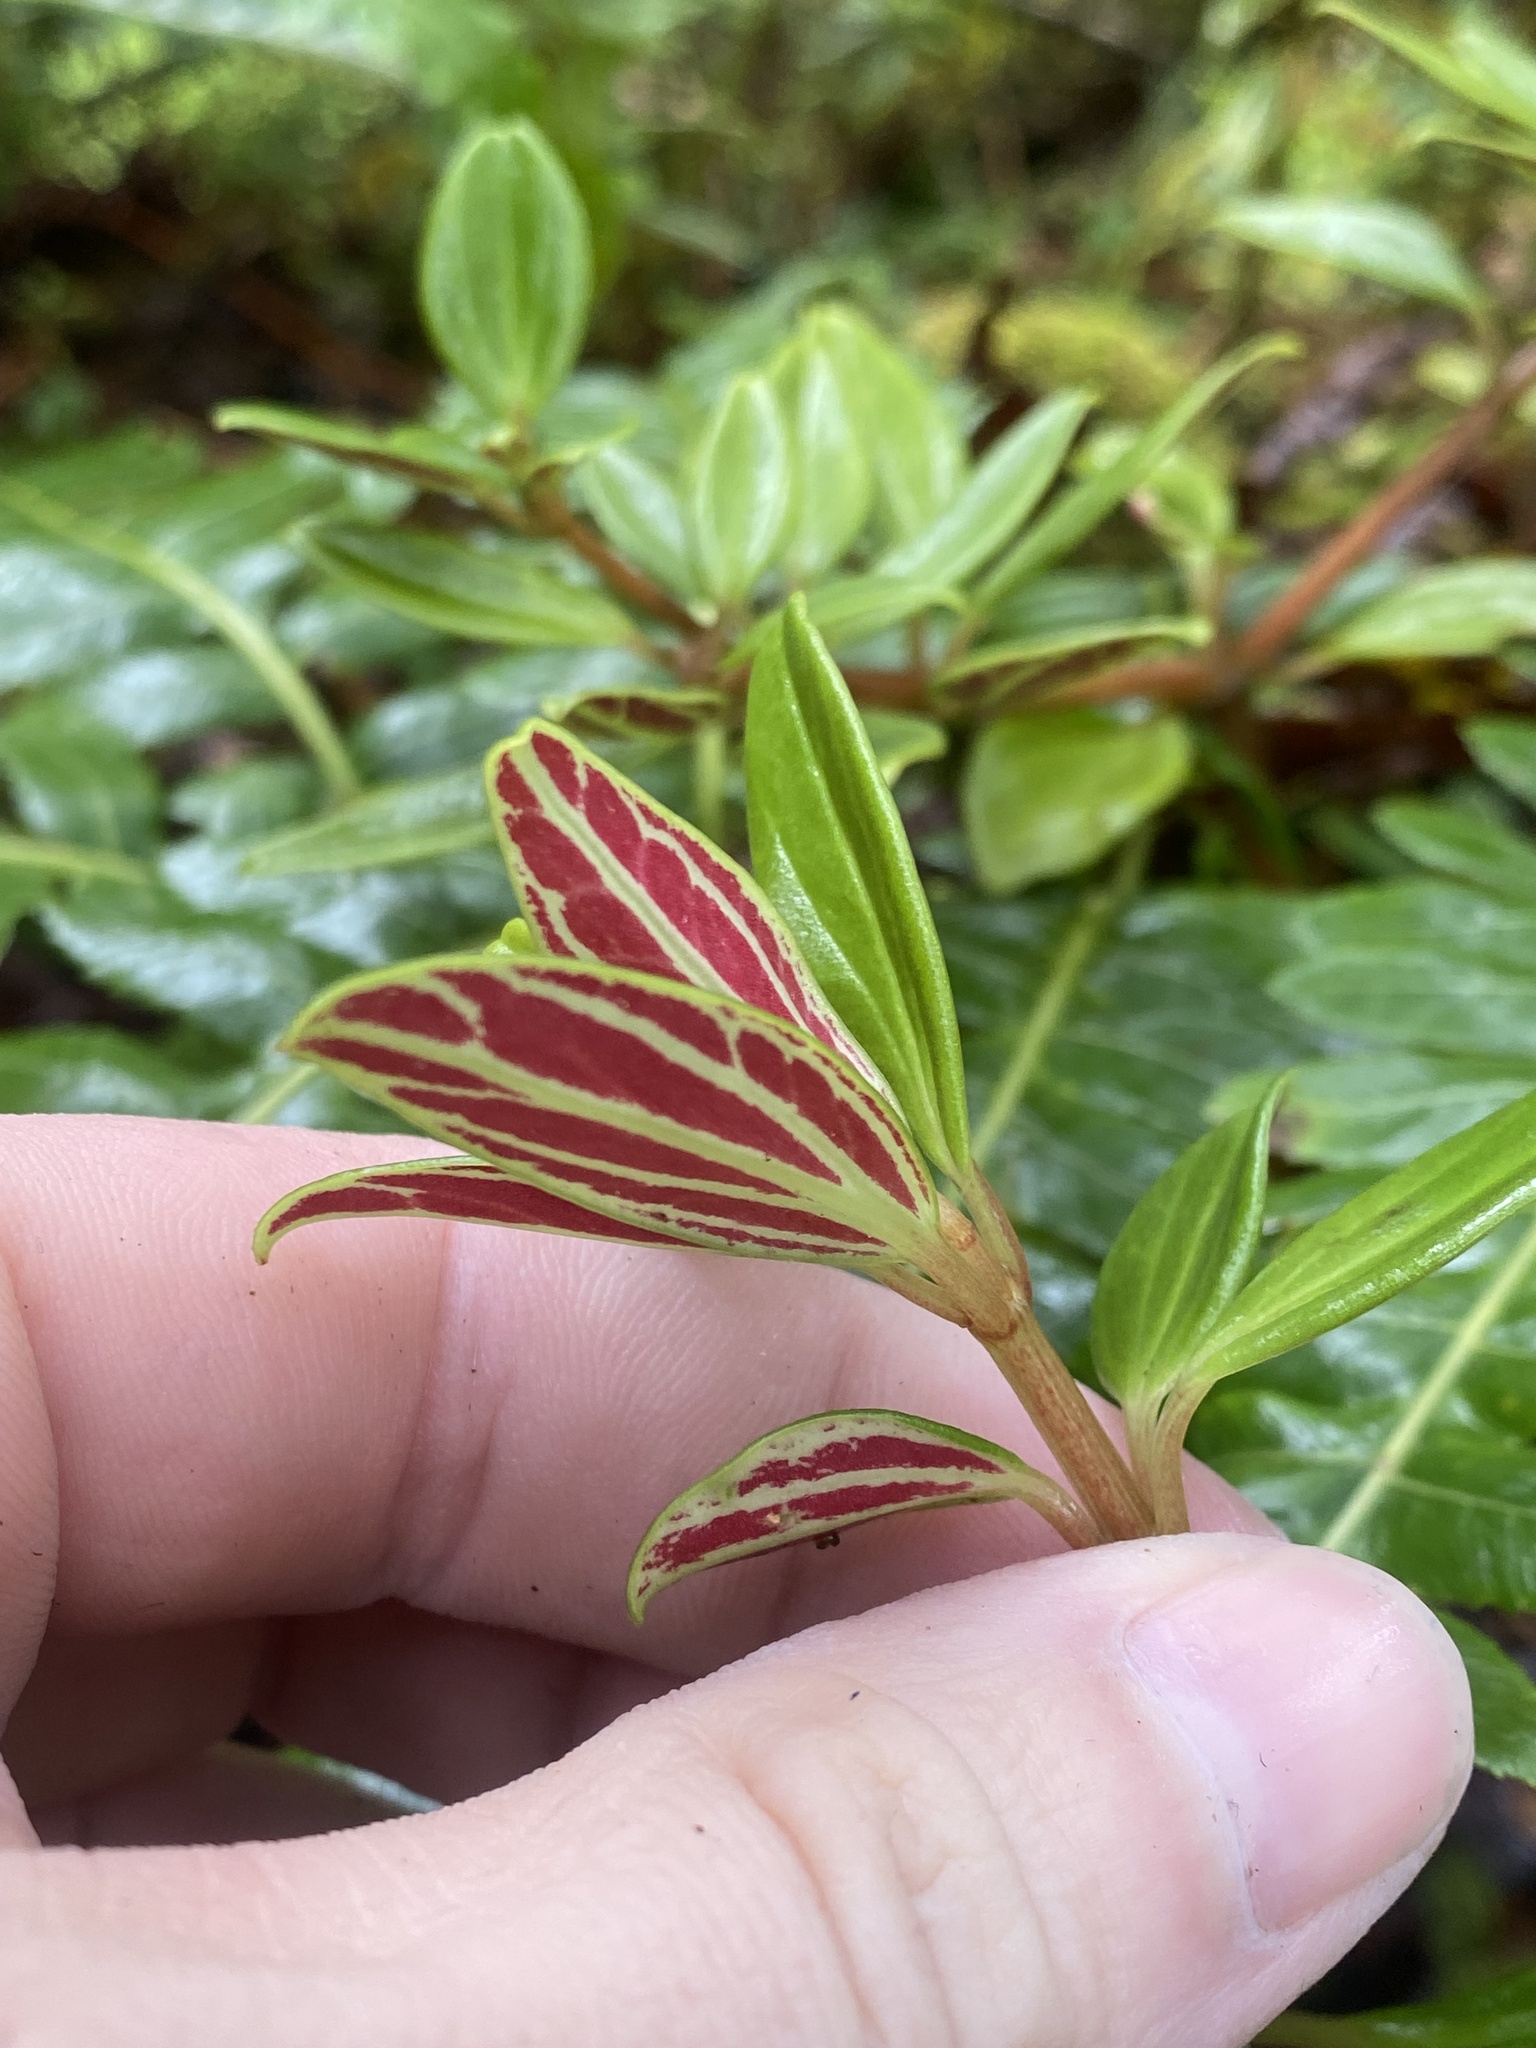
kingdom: Plantae
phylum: Tracheophyta
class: Magnoliopsida
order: Piperales
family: Piperaceae
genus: Peperomia
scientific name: Peperomia hesperomannii
